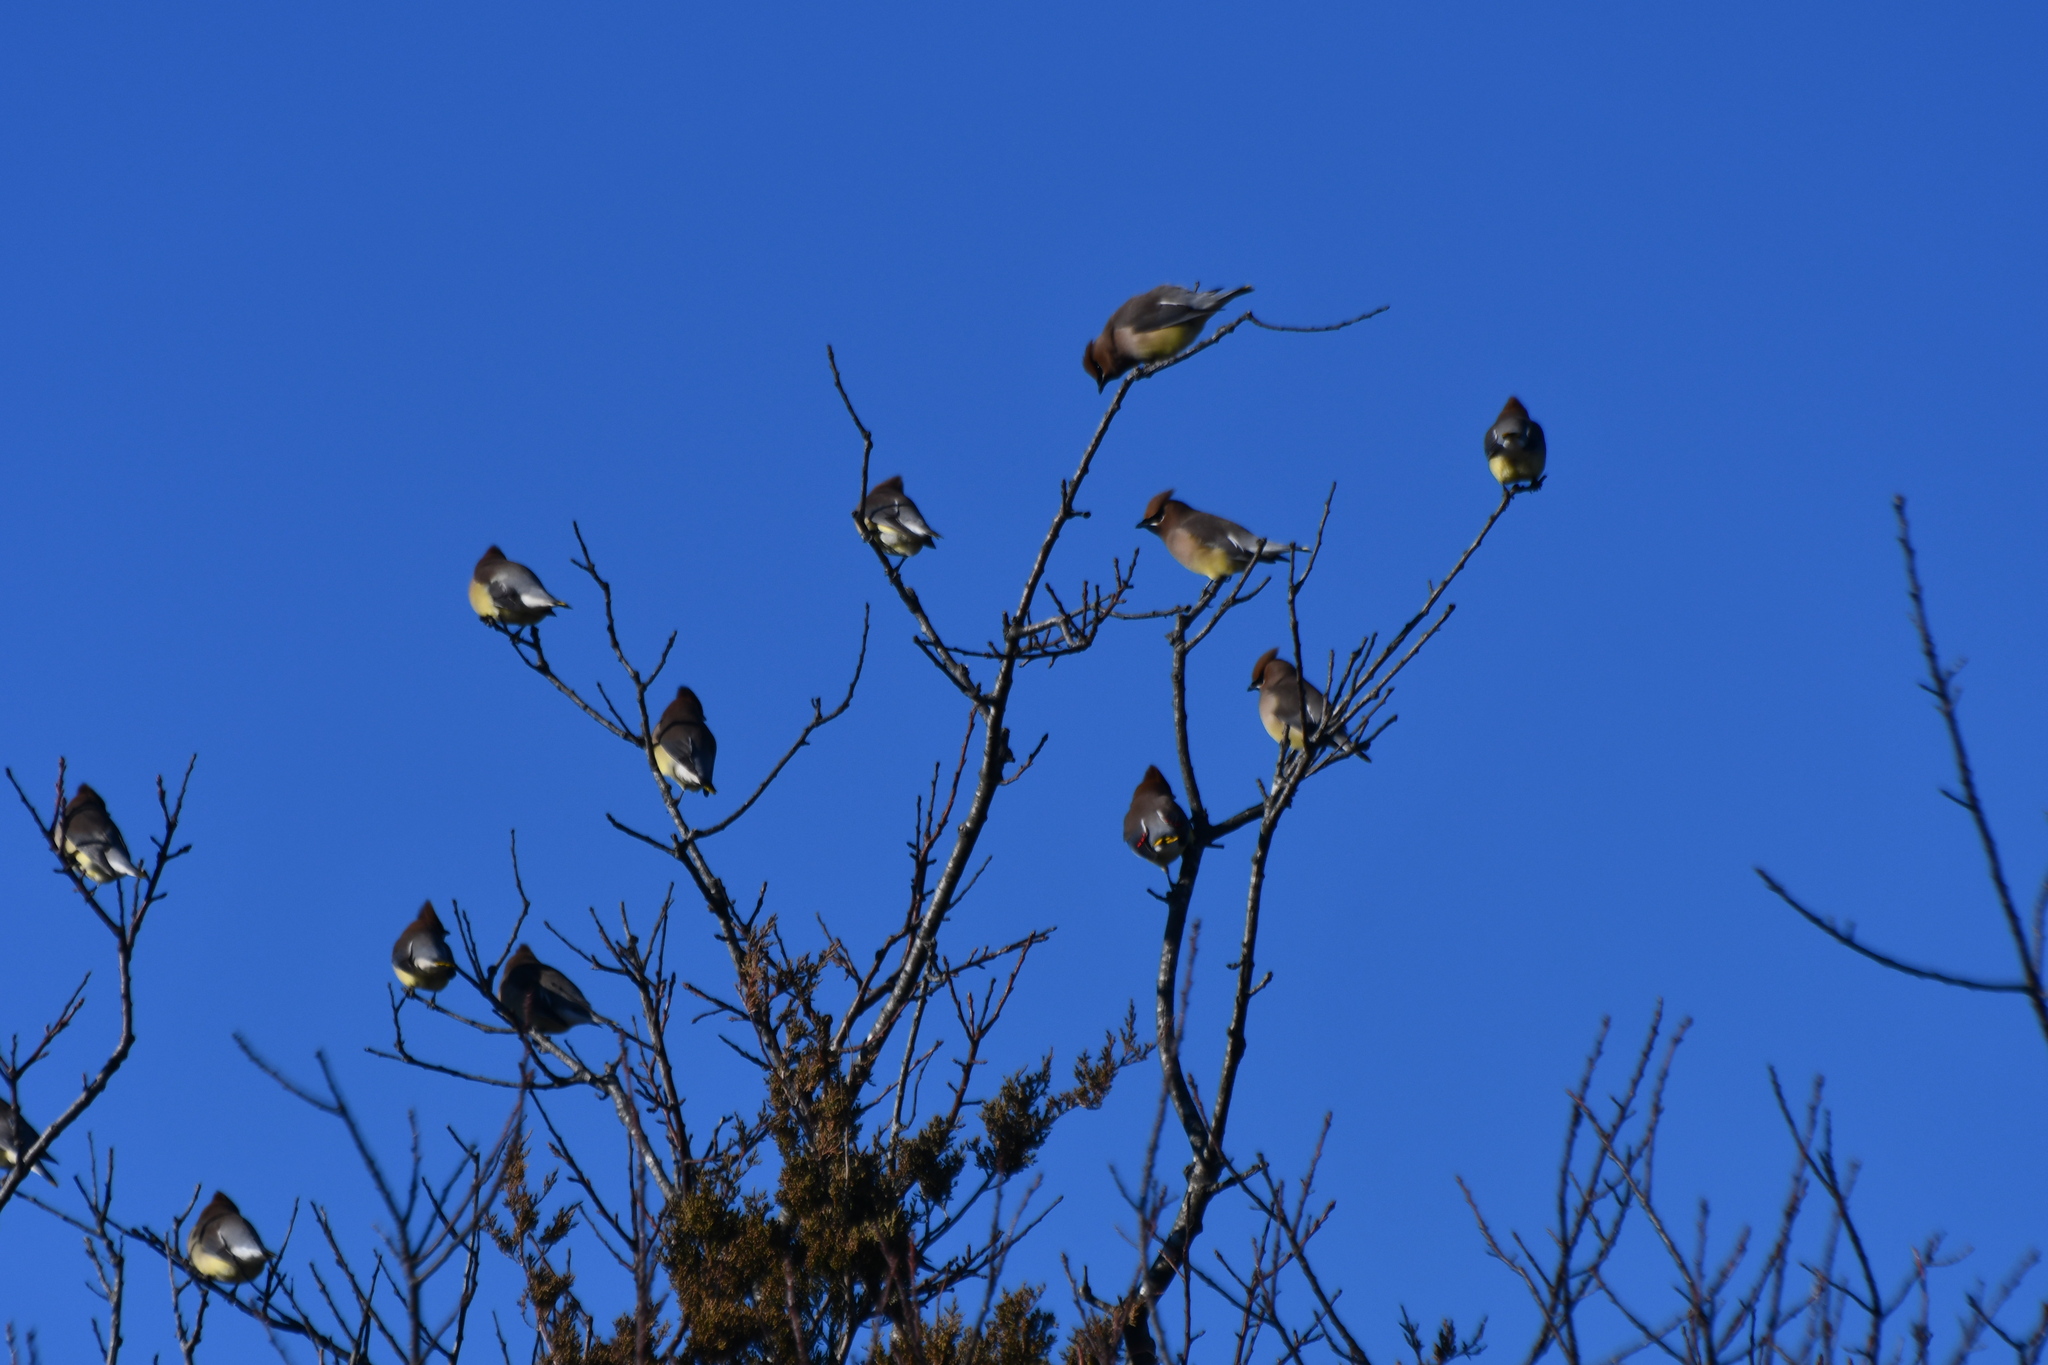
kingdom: Animalia
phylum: Chordata
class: Aves
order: Passeriformes
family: Bombycillidae
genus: Bombycilla
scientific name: Bombycilla cedrorum
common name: Cedar waxwing
